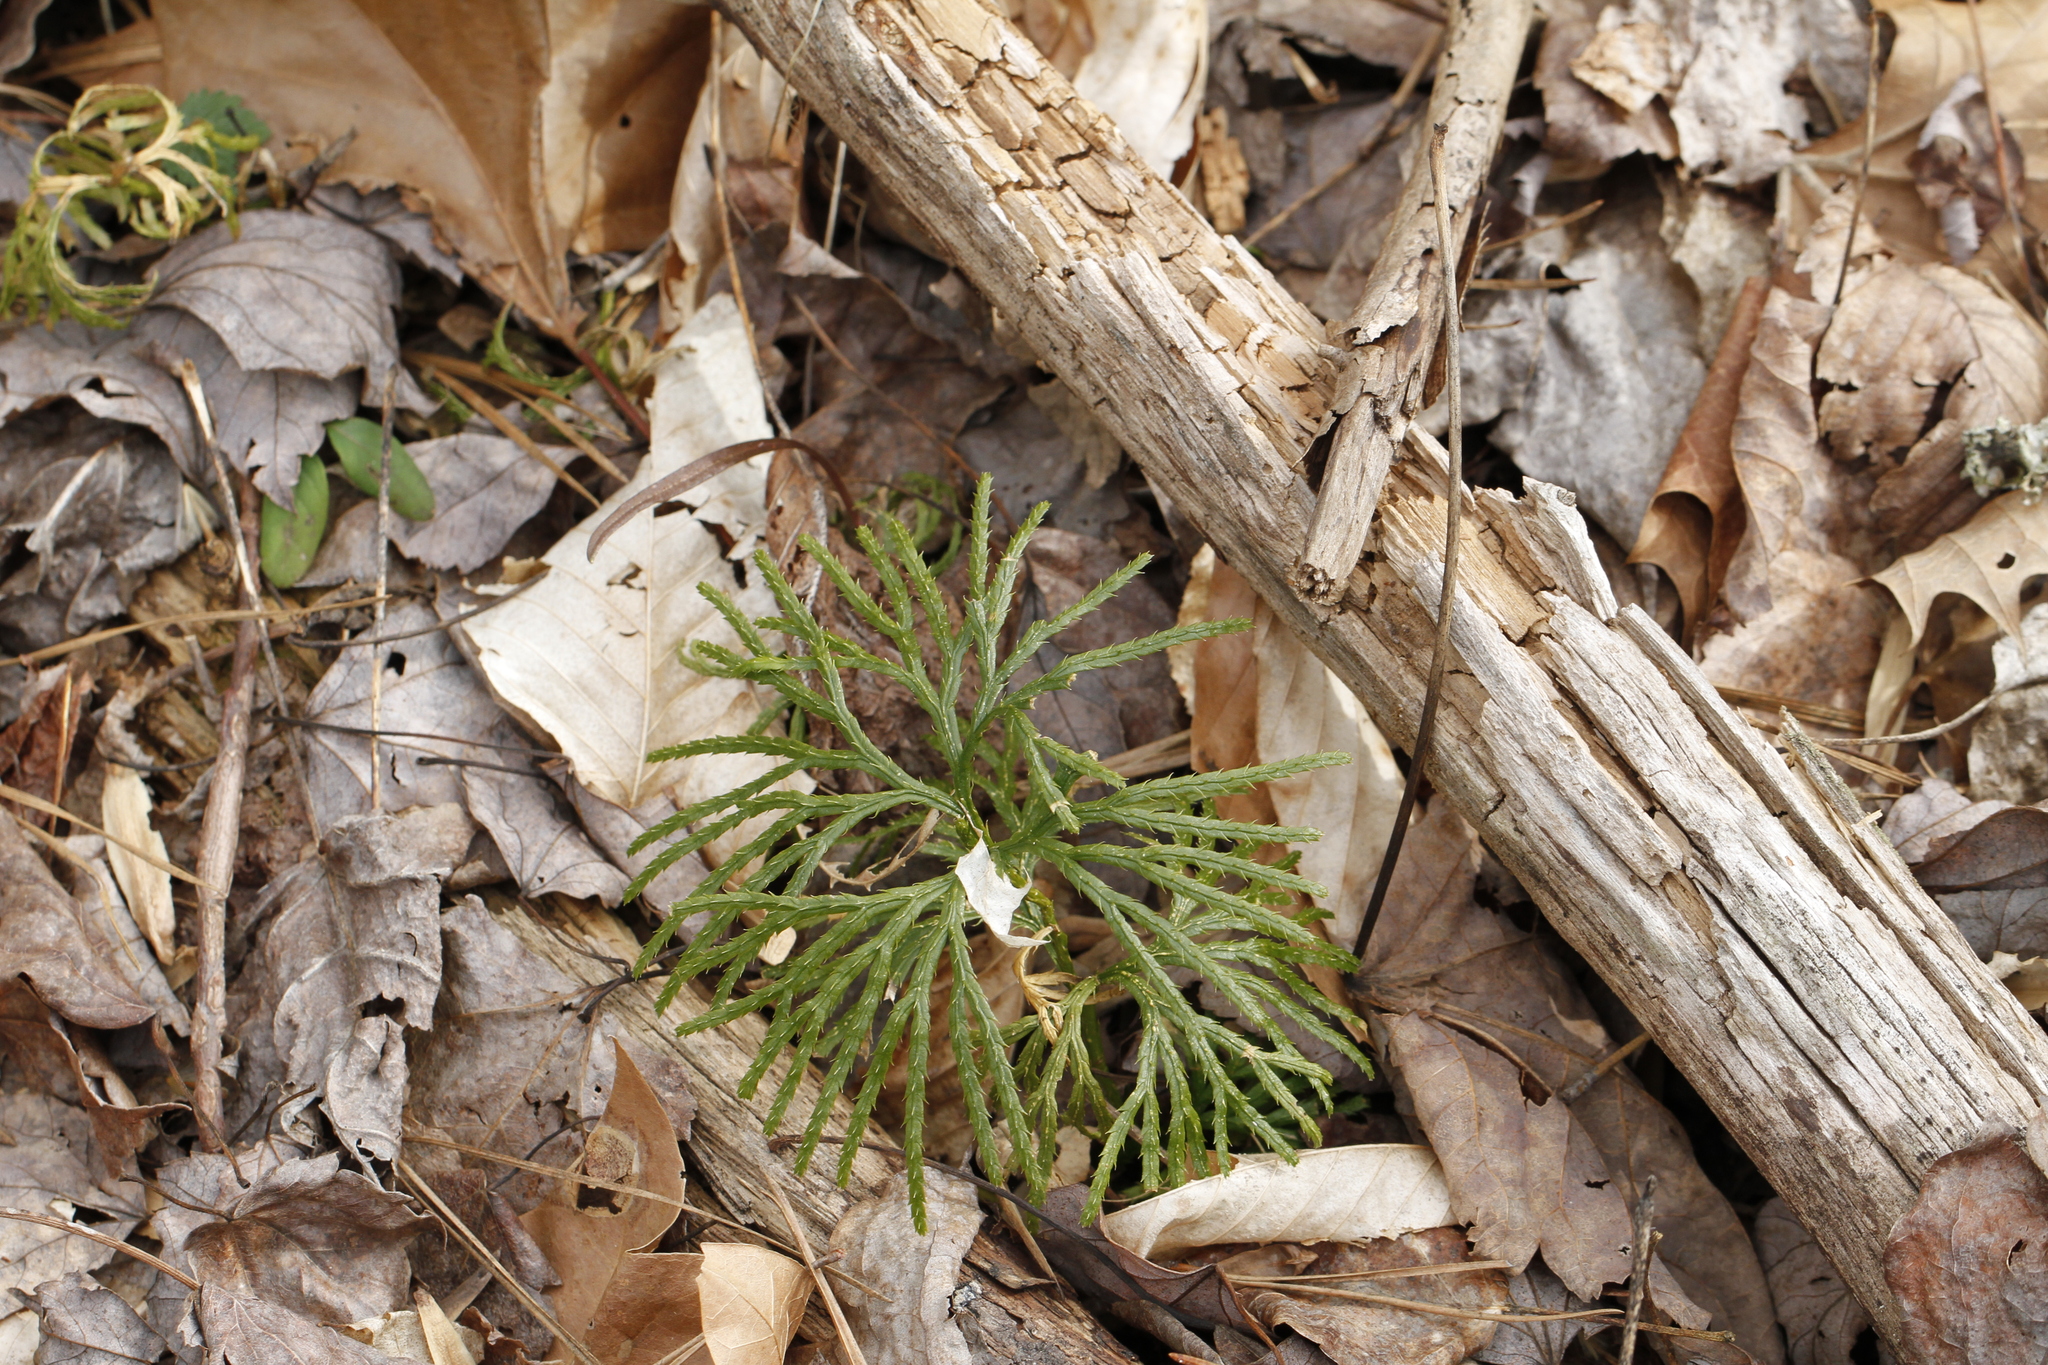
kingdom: Plantae
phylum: Tracheophyta
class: Lycopodiopsida
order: Lycopodiales
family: Lycopodiaceae
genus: Diphasiastrum
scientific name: Diphasiastrum digitatum
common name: Southern running-pine
